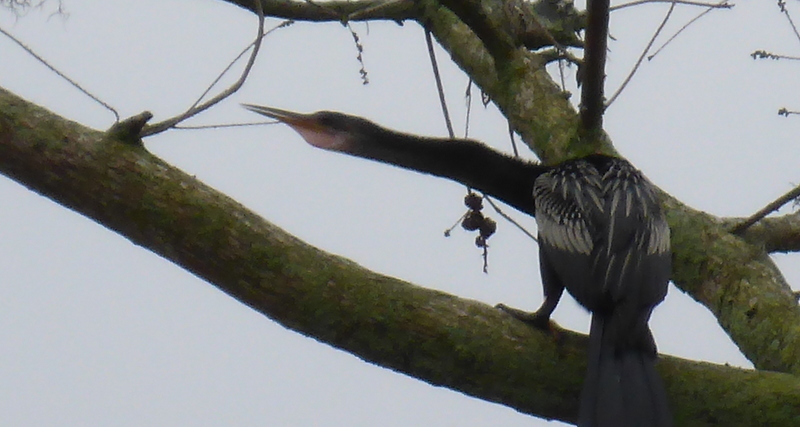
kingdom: Animalia
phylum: Chordata
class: Aves
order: Suliformes
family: Anhingidae
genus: Anhinga
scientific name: Anhinga anhinga
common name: Anhinga
